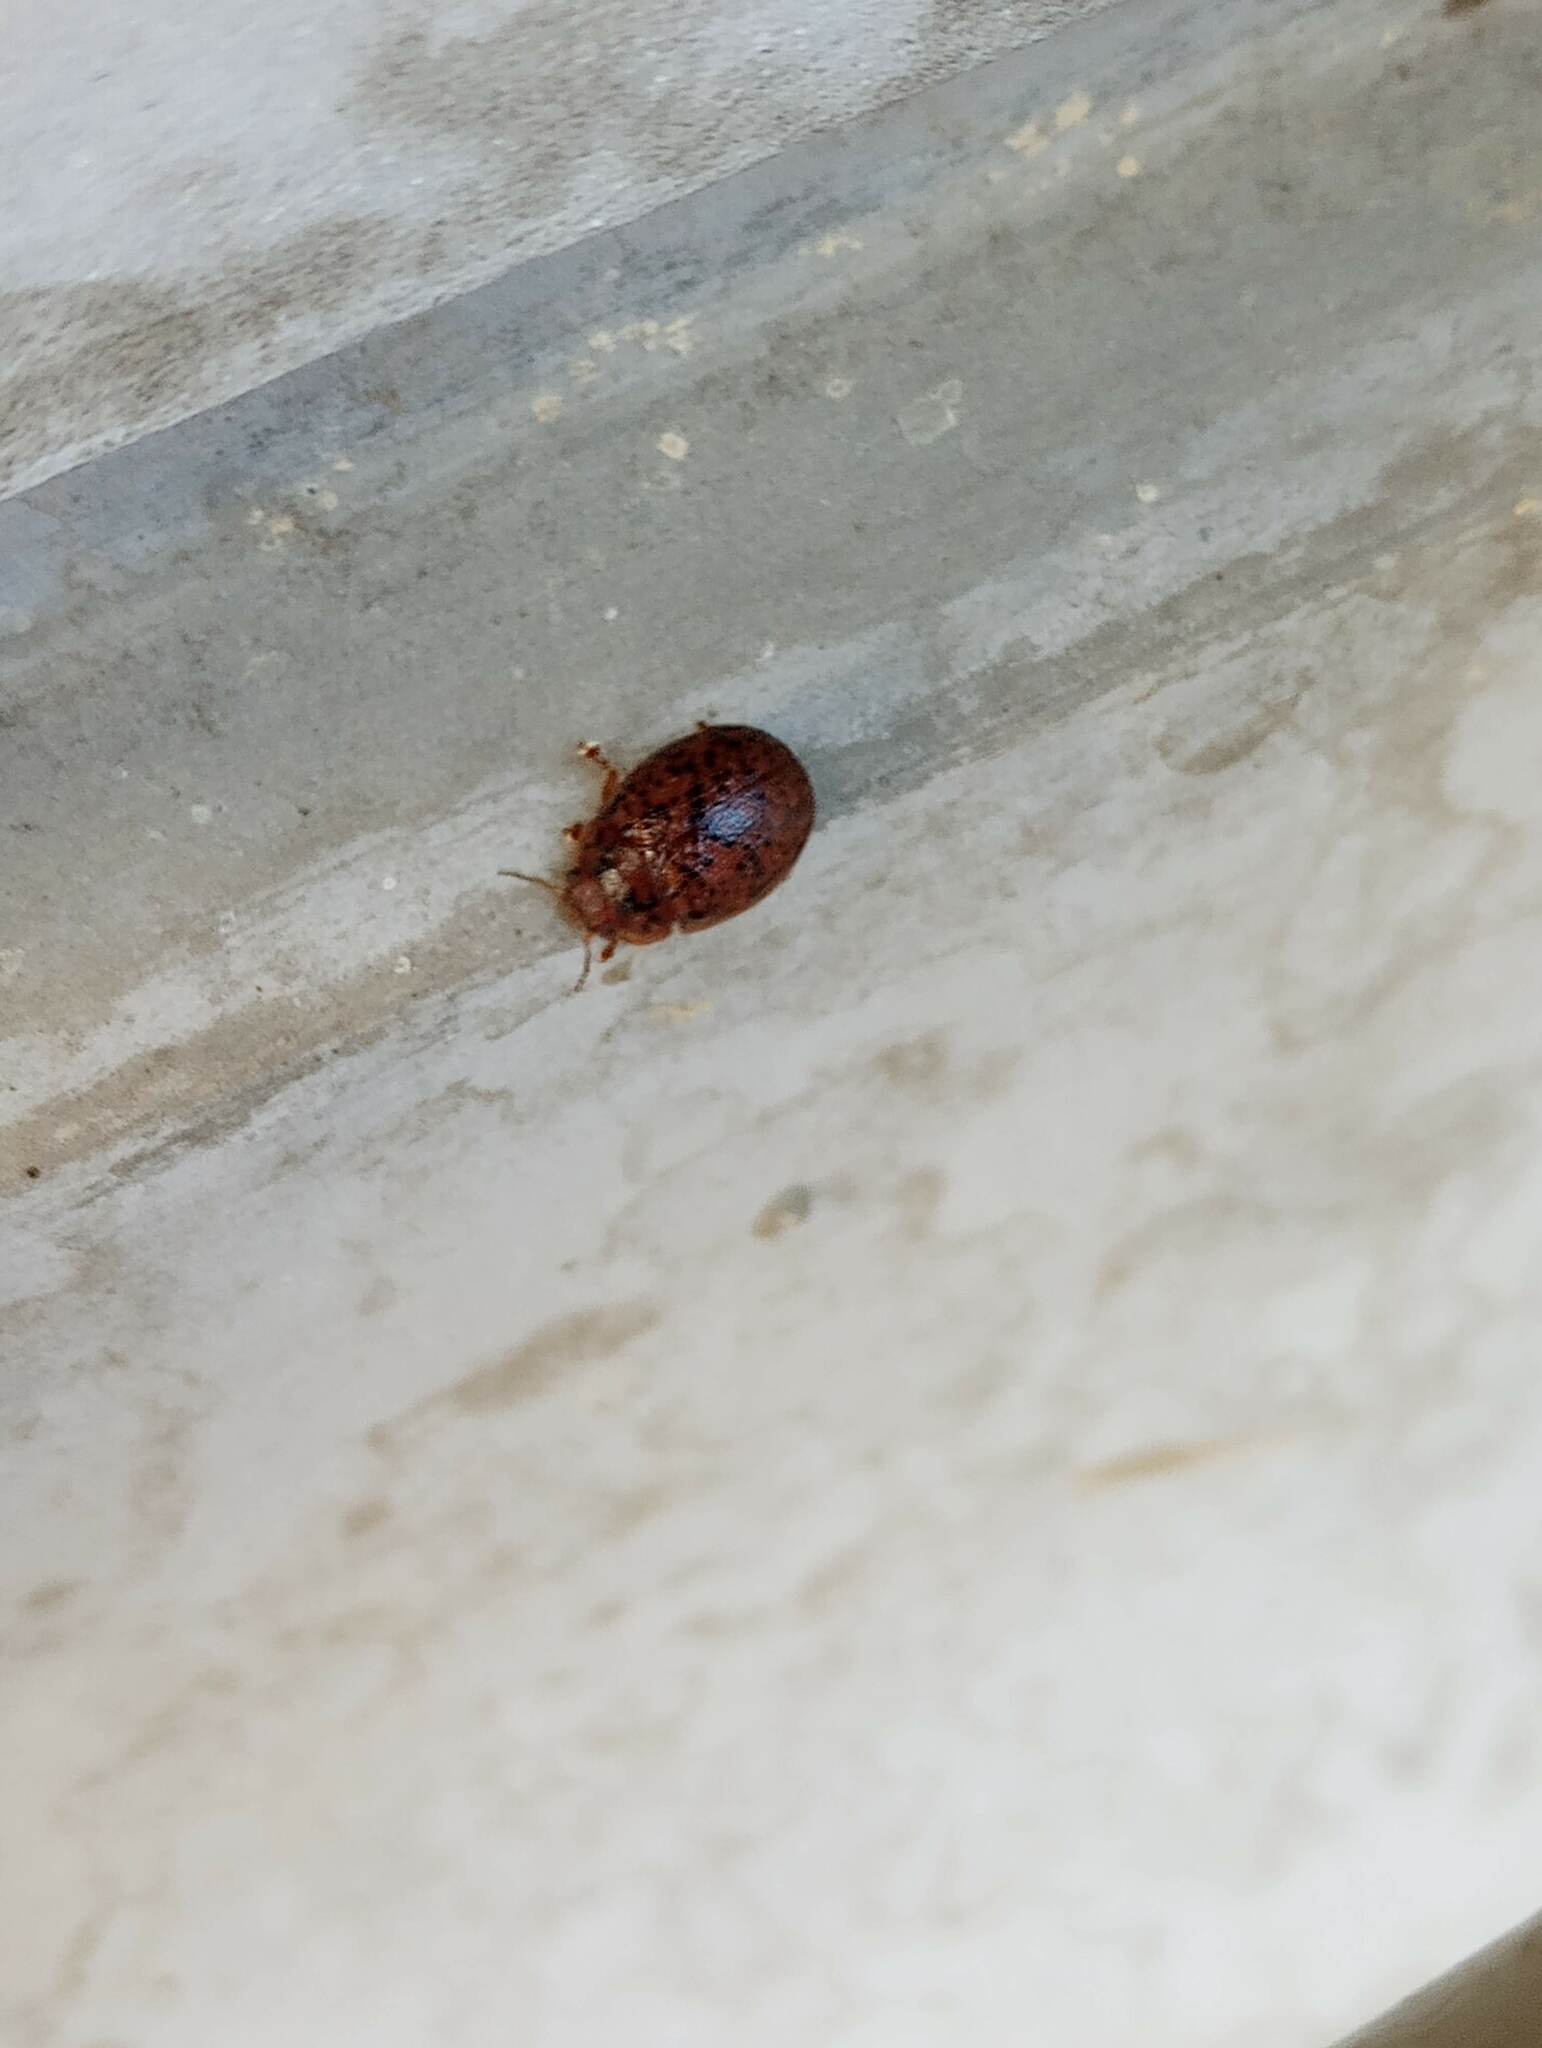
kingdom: Animalia
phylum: Arthropoda
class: Insecta
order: Coleoptera
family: Chrysomelidae
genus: Trachymela
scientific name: Trachymela sloanei
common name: Australian tortoise beetle
